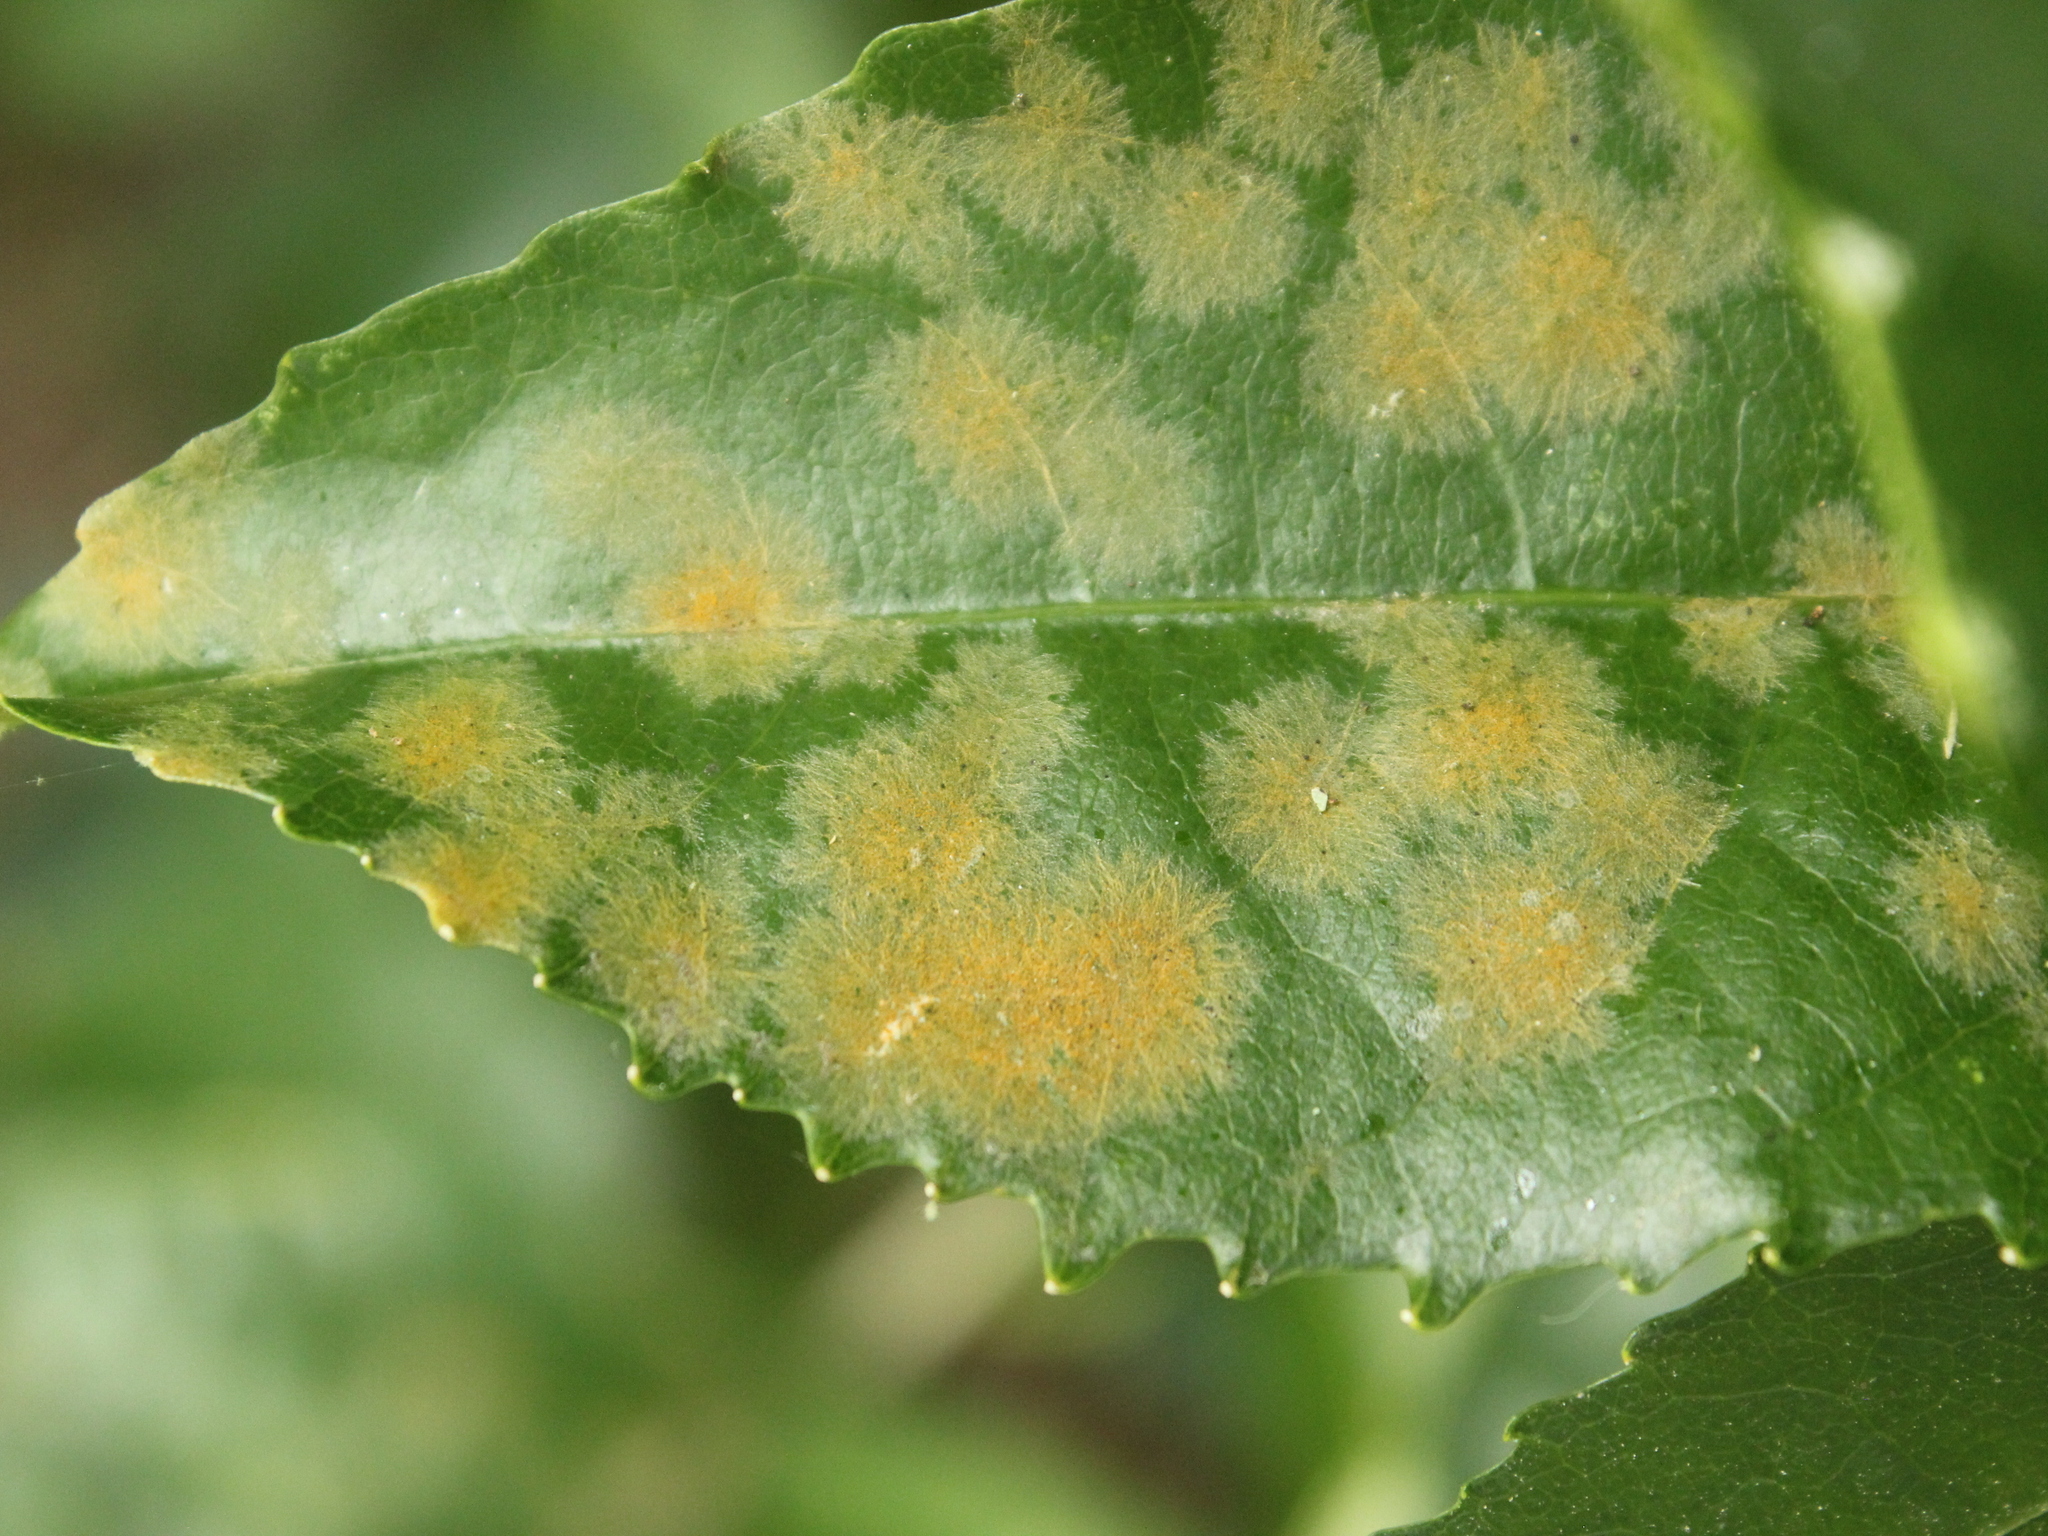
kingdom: Plantae
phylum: Tracheophyta
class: Magnoliopsida
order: Malpighiales
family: Violaceae
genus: Melicytus
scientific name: Melicytus ramiflorus
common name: Mahoe
